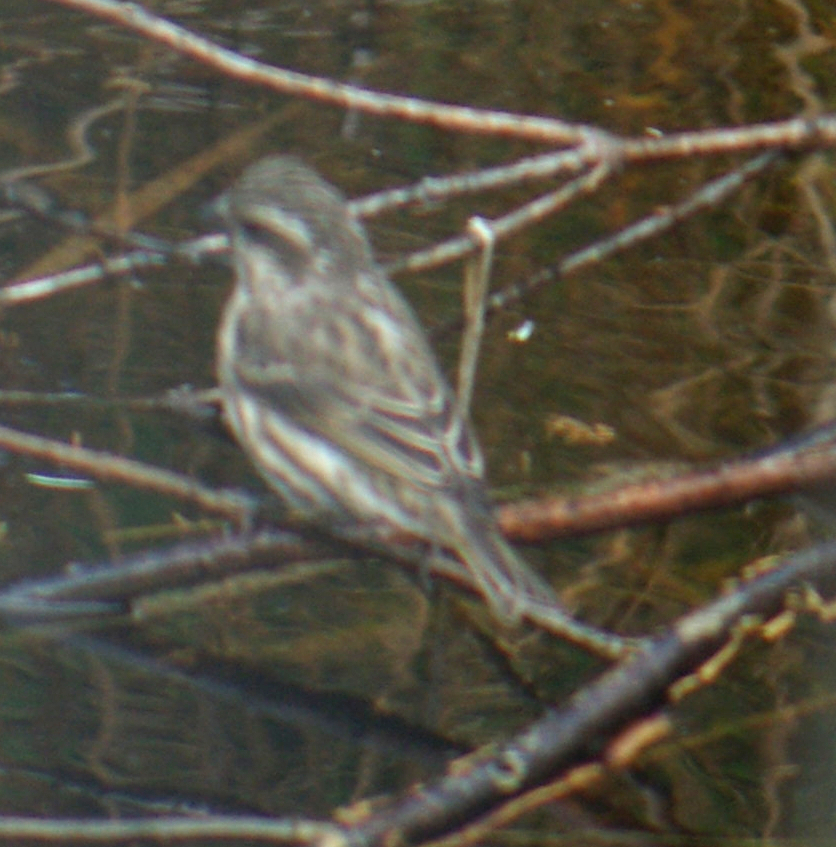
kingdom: Animalia
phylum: Chordata
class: Aves
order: Passeriformes
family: Fringillidae
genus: Haemorhous
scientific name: Haemorhous purpureus
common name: Purple finch
